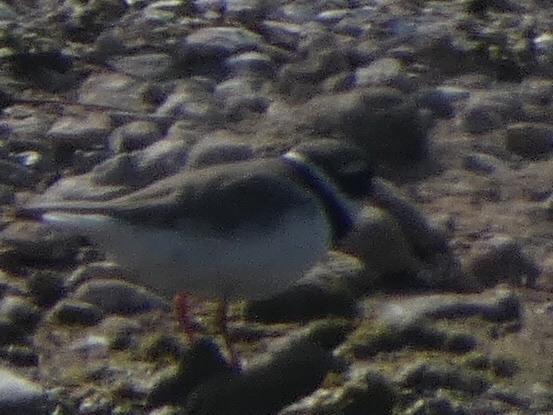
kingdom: Animalia
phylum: Chordata
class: Aves
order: Charadriiformes
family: Charadriidae
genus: Charadrius
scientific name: Charadrius hiaticula
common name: Common ringed plover
